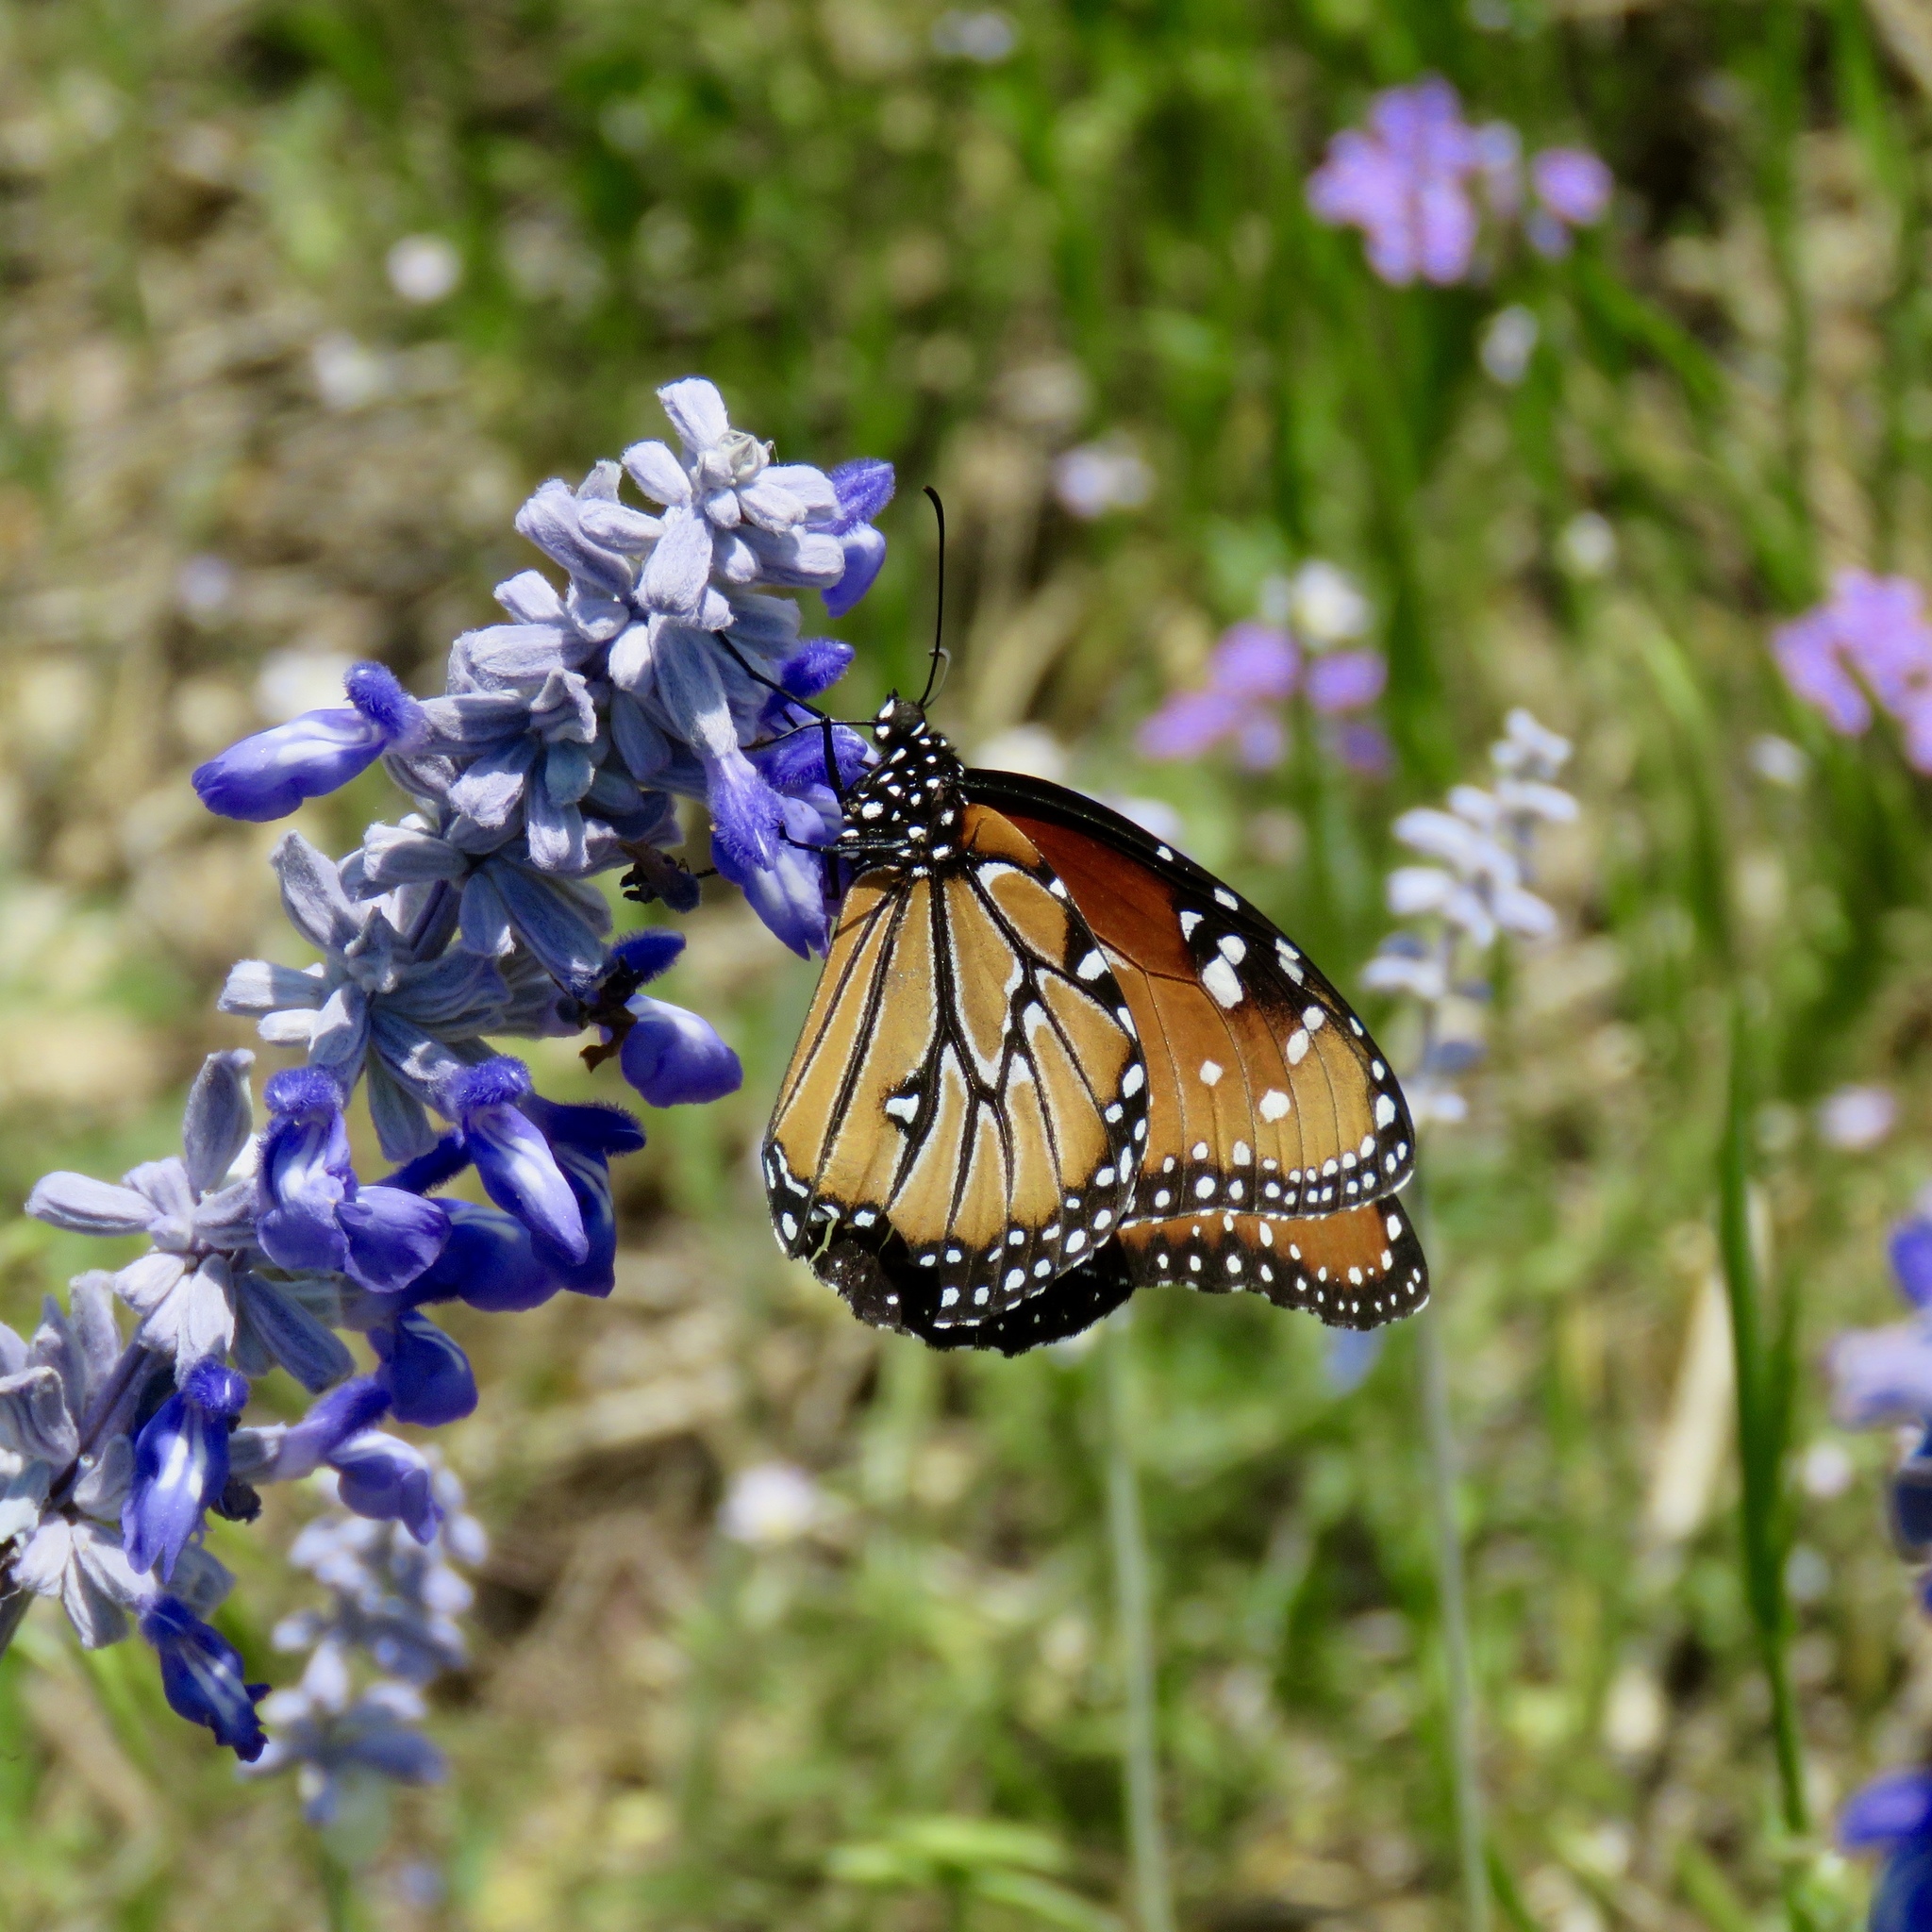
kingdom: Animalia
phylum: Arthropoda
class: Insecta
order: Lepidoptera
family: Nymphalidae
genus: Danaus
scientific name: Danaus gilippus
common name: Queen
